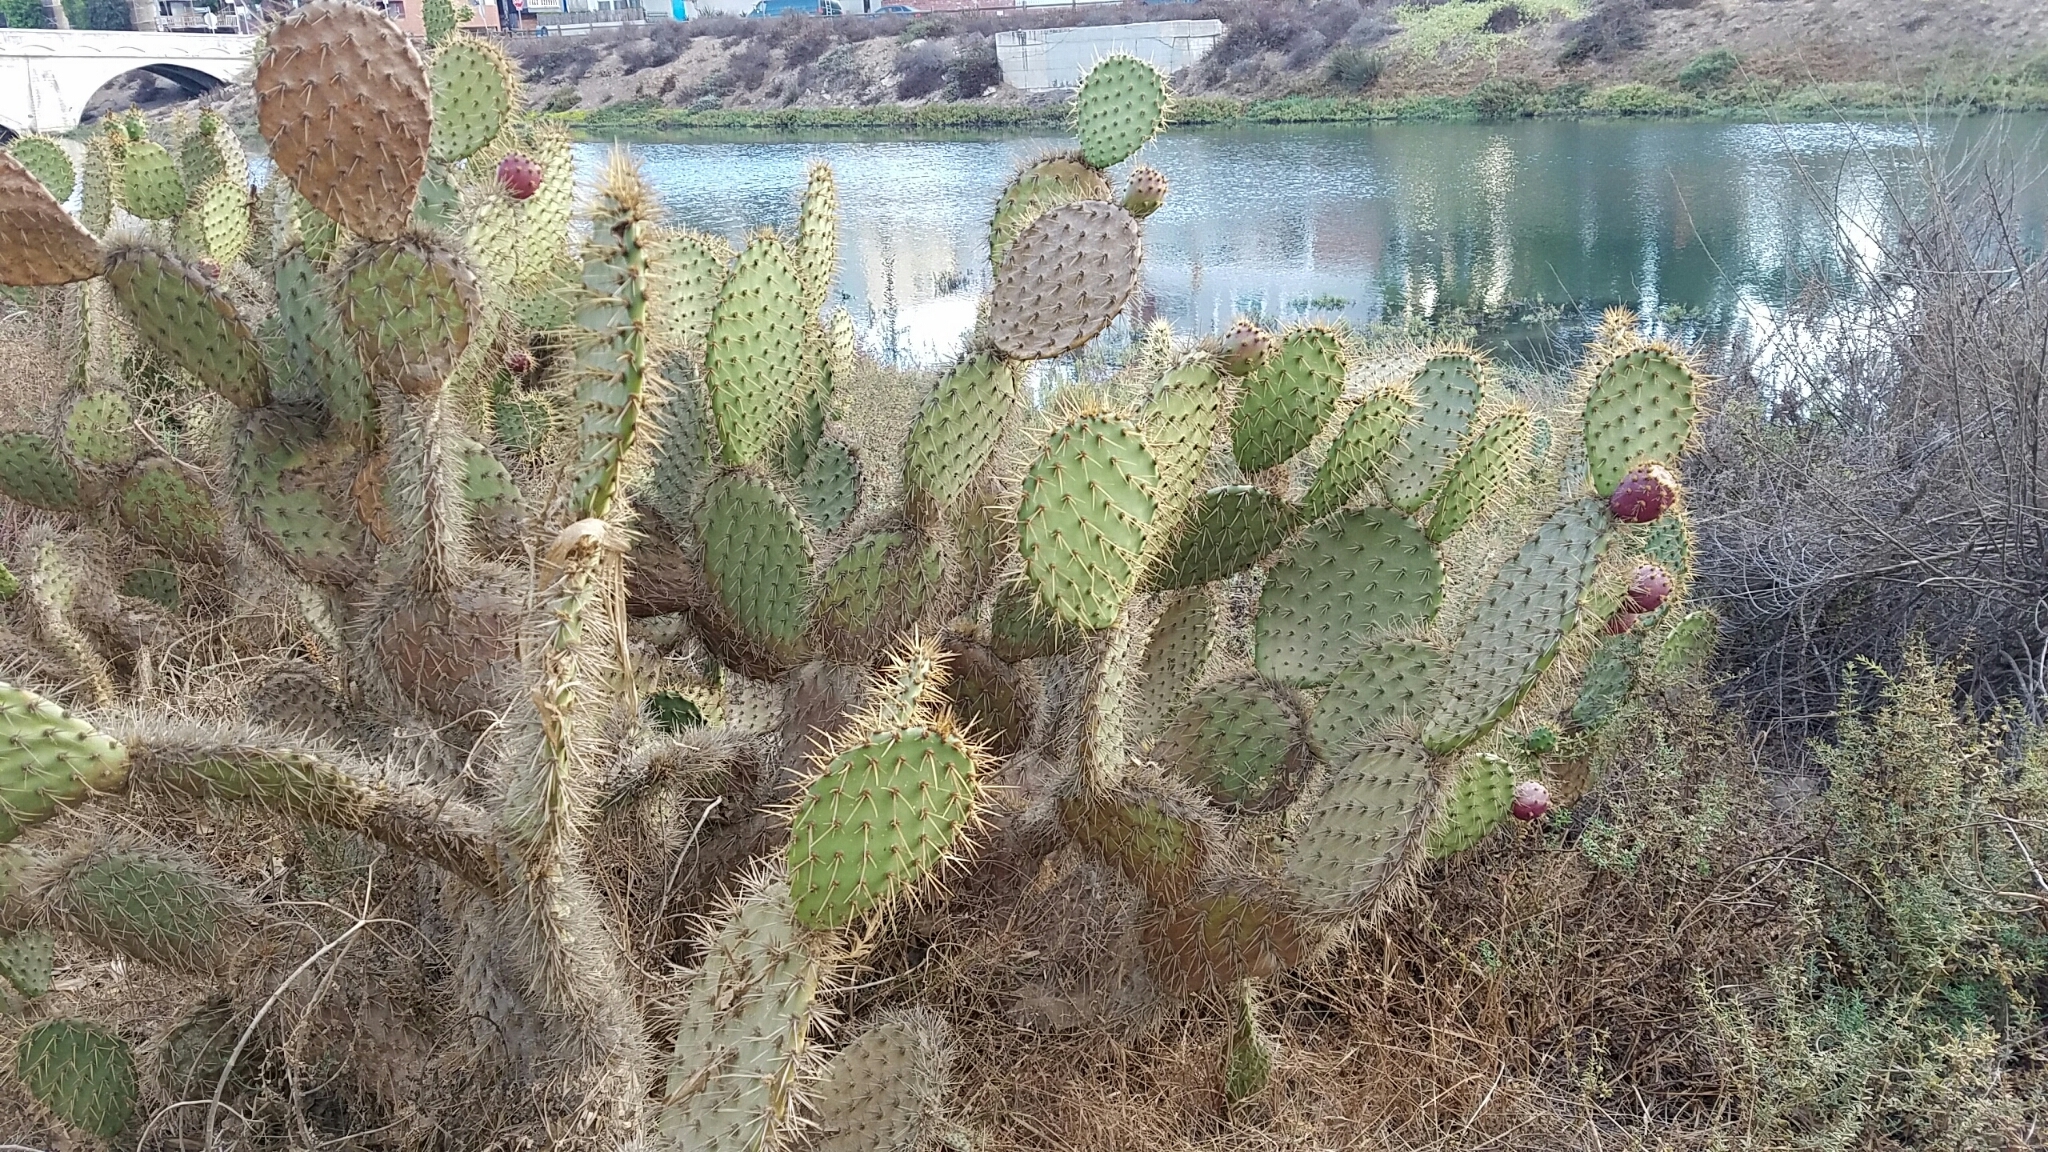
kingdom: Plantae
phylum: Tracheophyta
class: Magnoliopsida
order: Caryophyllales
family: Cactaceae
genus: Opuntia
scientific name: Opuntia littoralis
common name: Coastal prickly-pear
